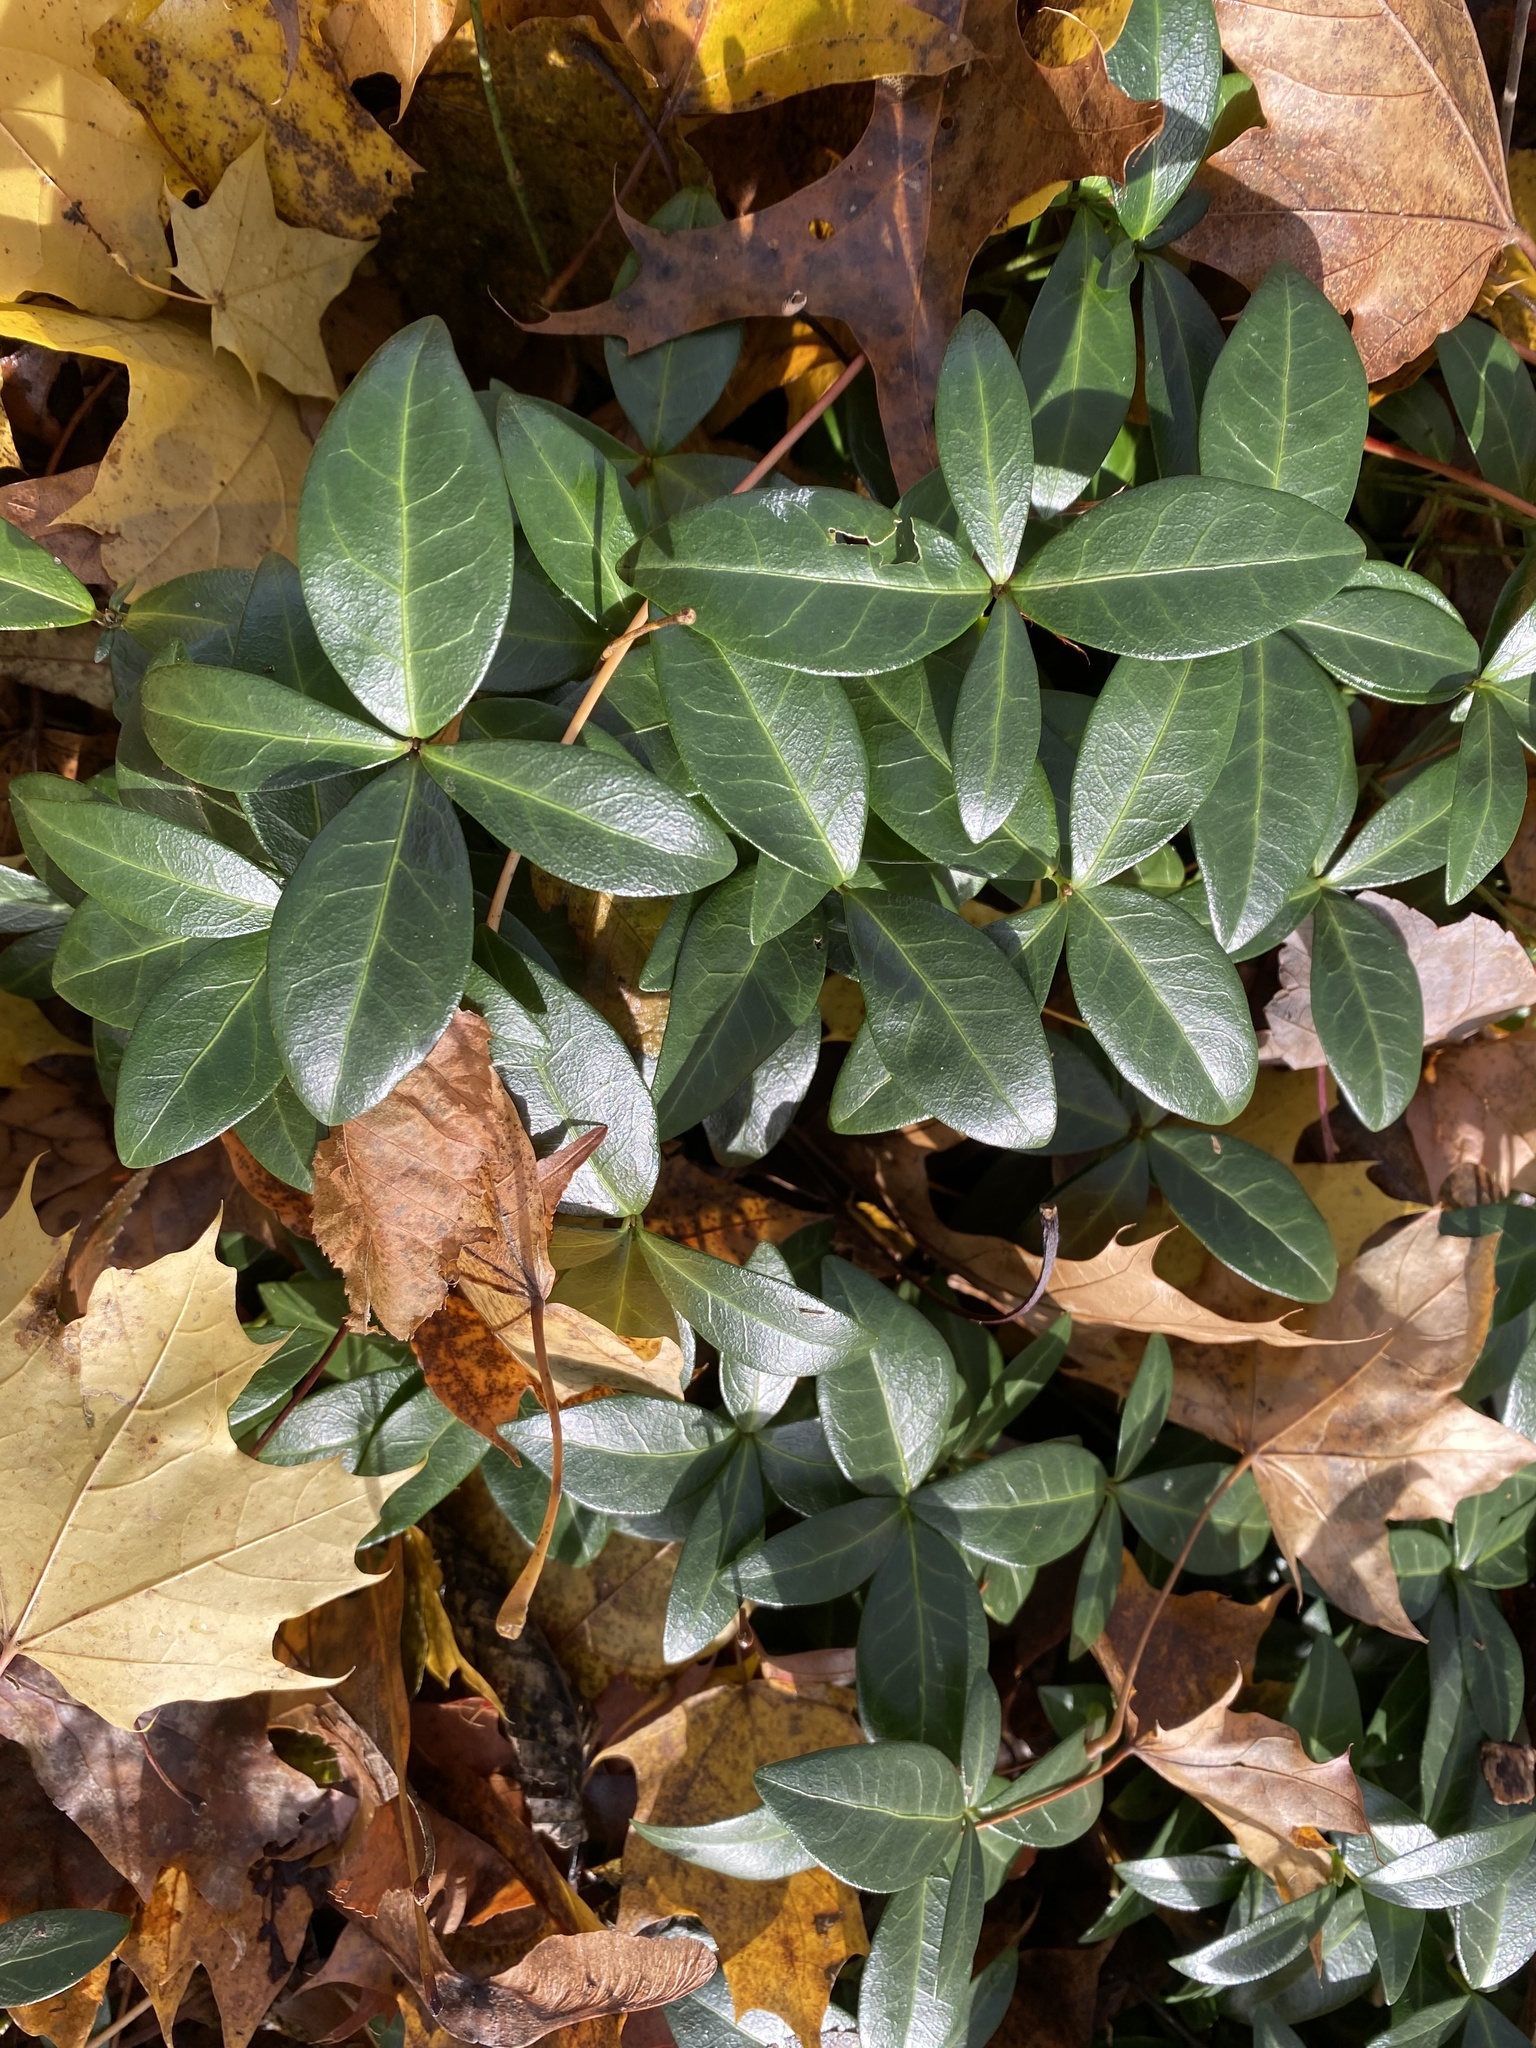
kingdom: Plantae
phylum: Tracheophyta
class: Magnoliopsida
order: Gentianales
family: Apocynaceae
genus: Vinca
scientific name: Vinca minor
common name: Lesser periwinkle
